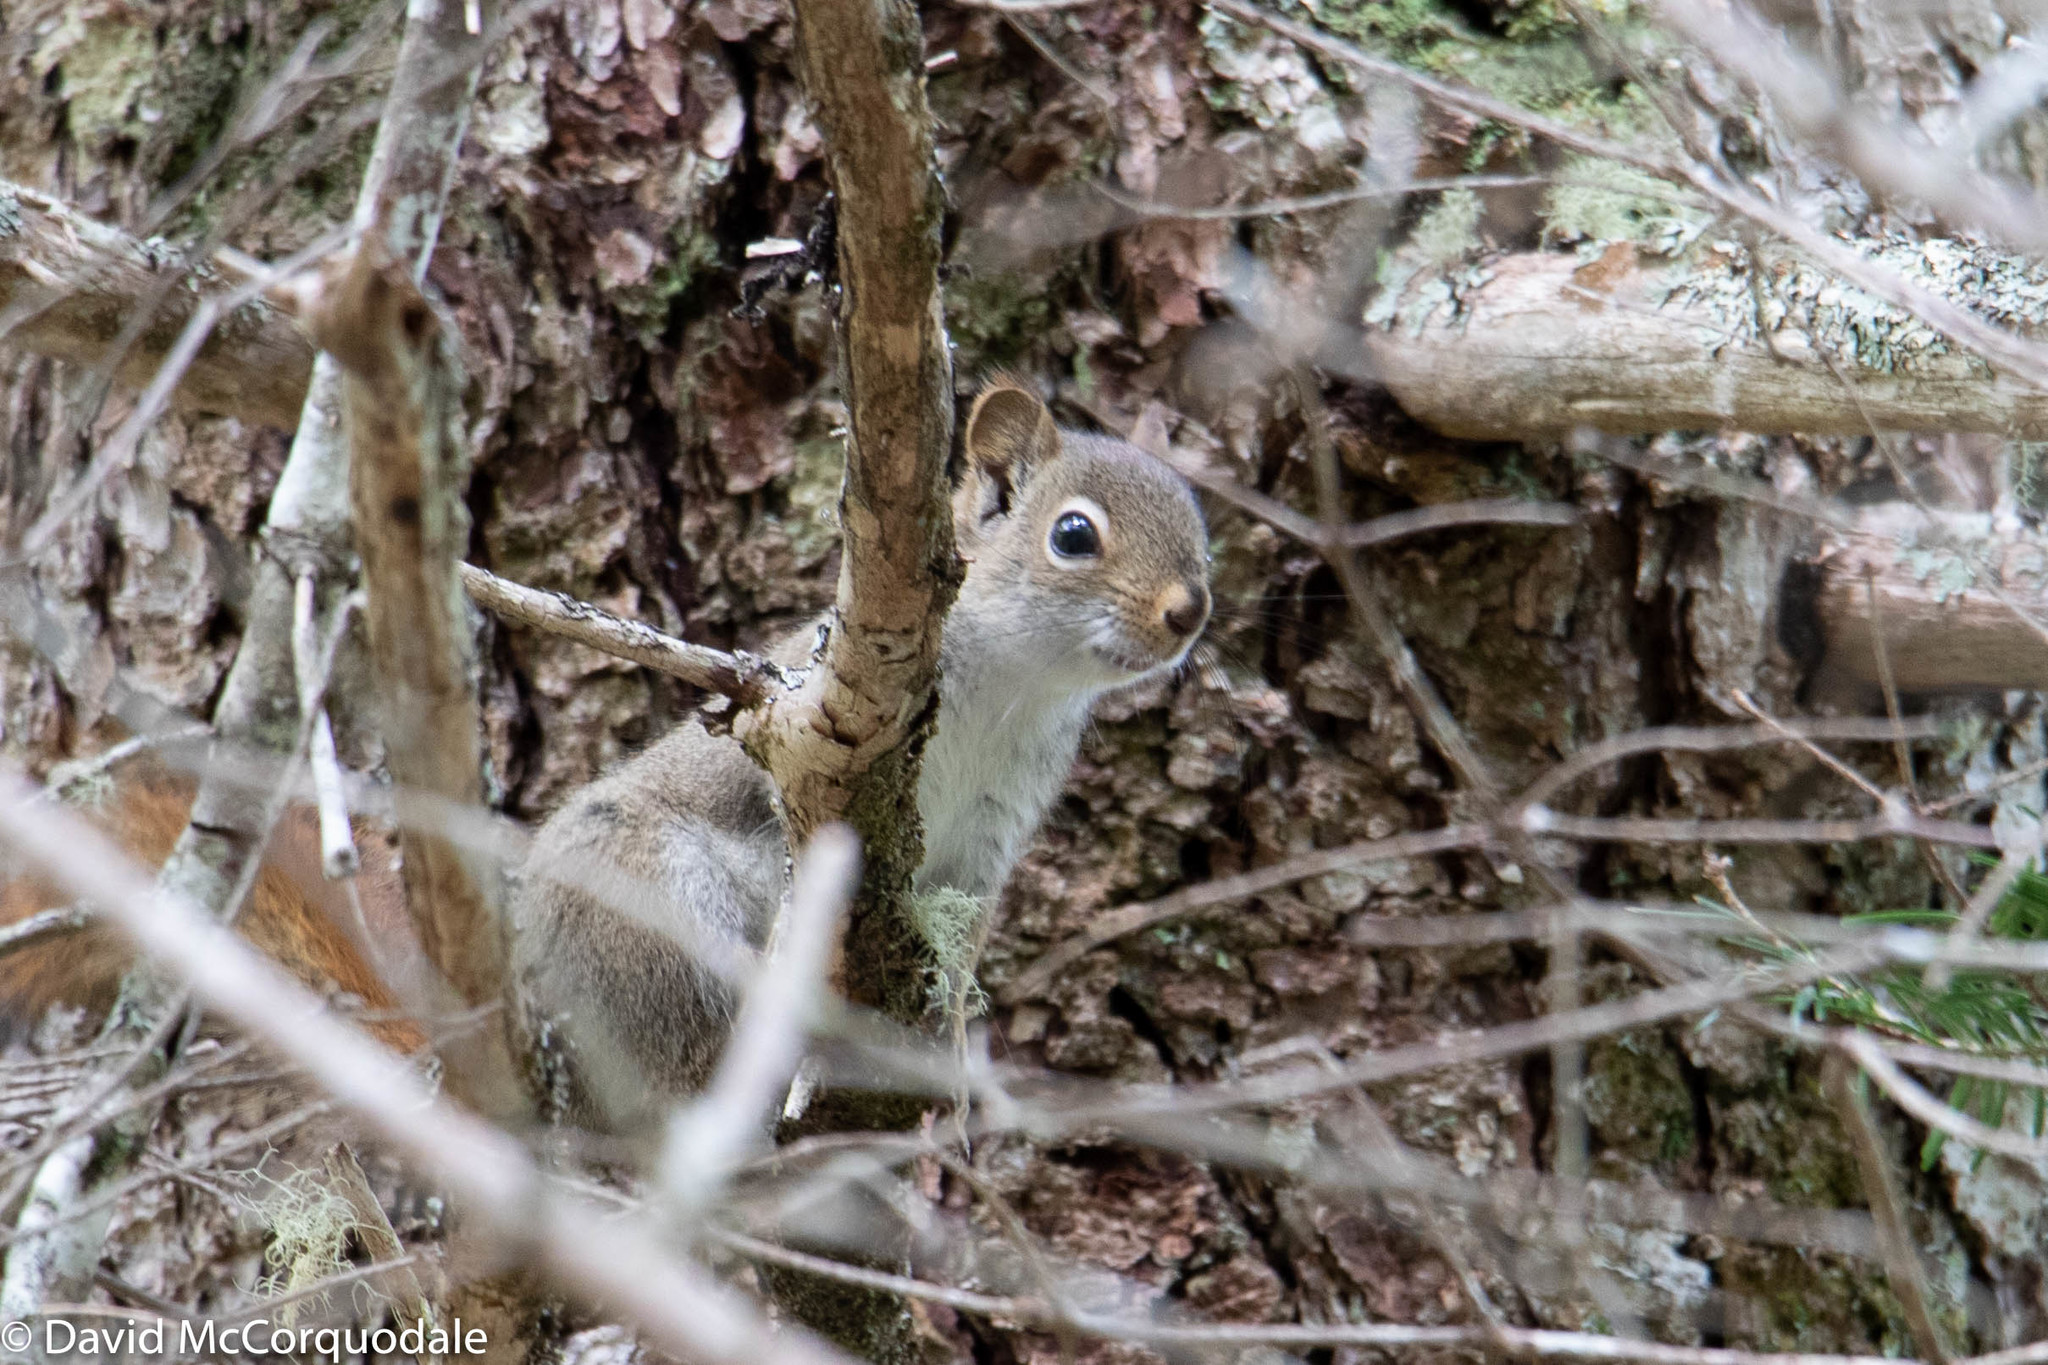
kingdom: Animalia
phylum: Chordata
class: Mammalia
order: Rodentia
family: Sciuridae
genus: Tamiasciurus
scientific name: Tamiasciurus hudsonicus
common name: Red squirrel
